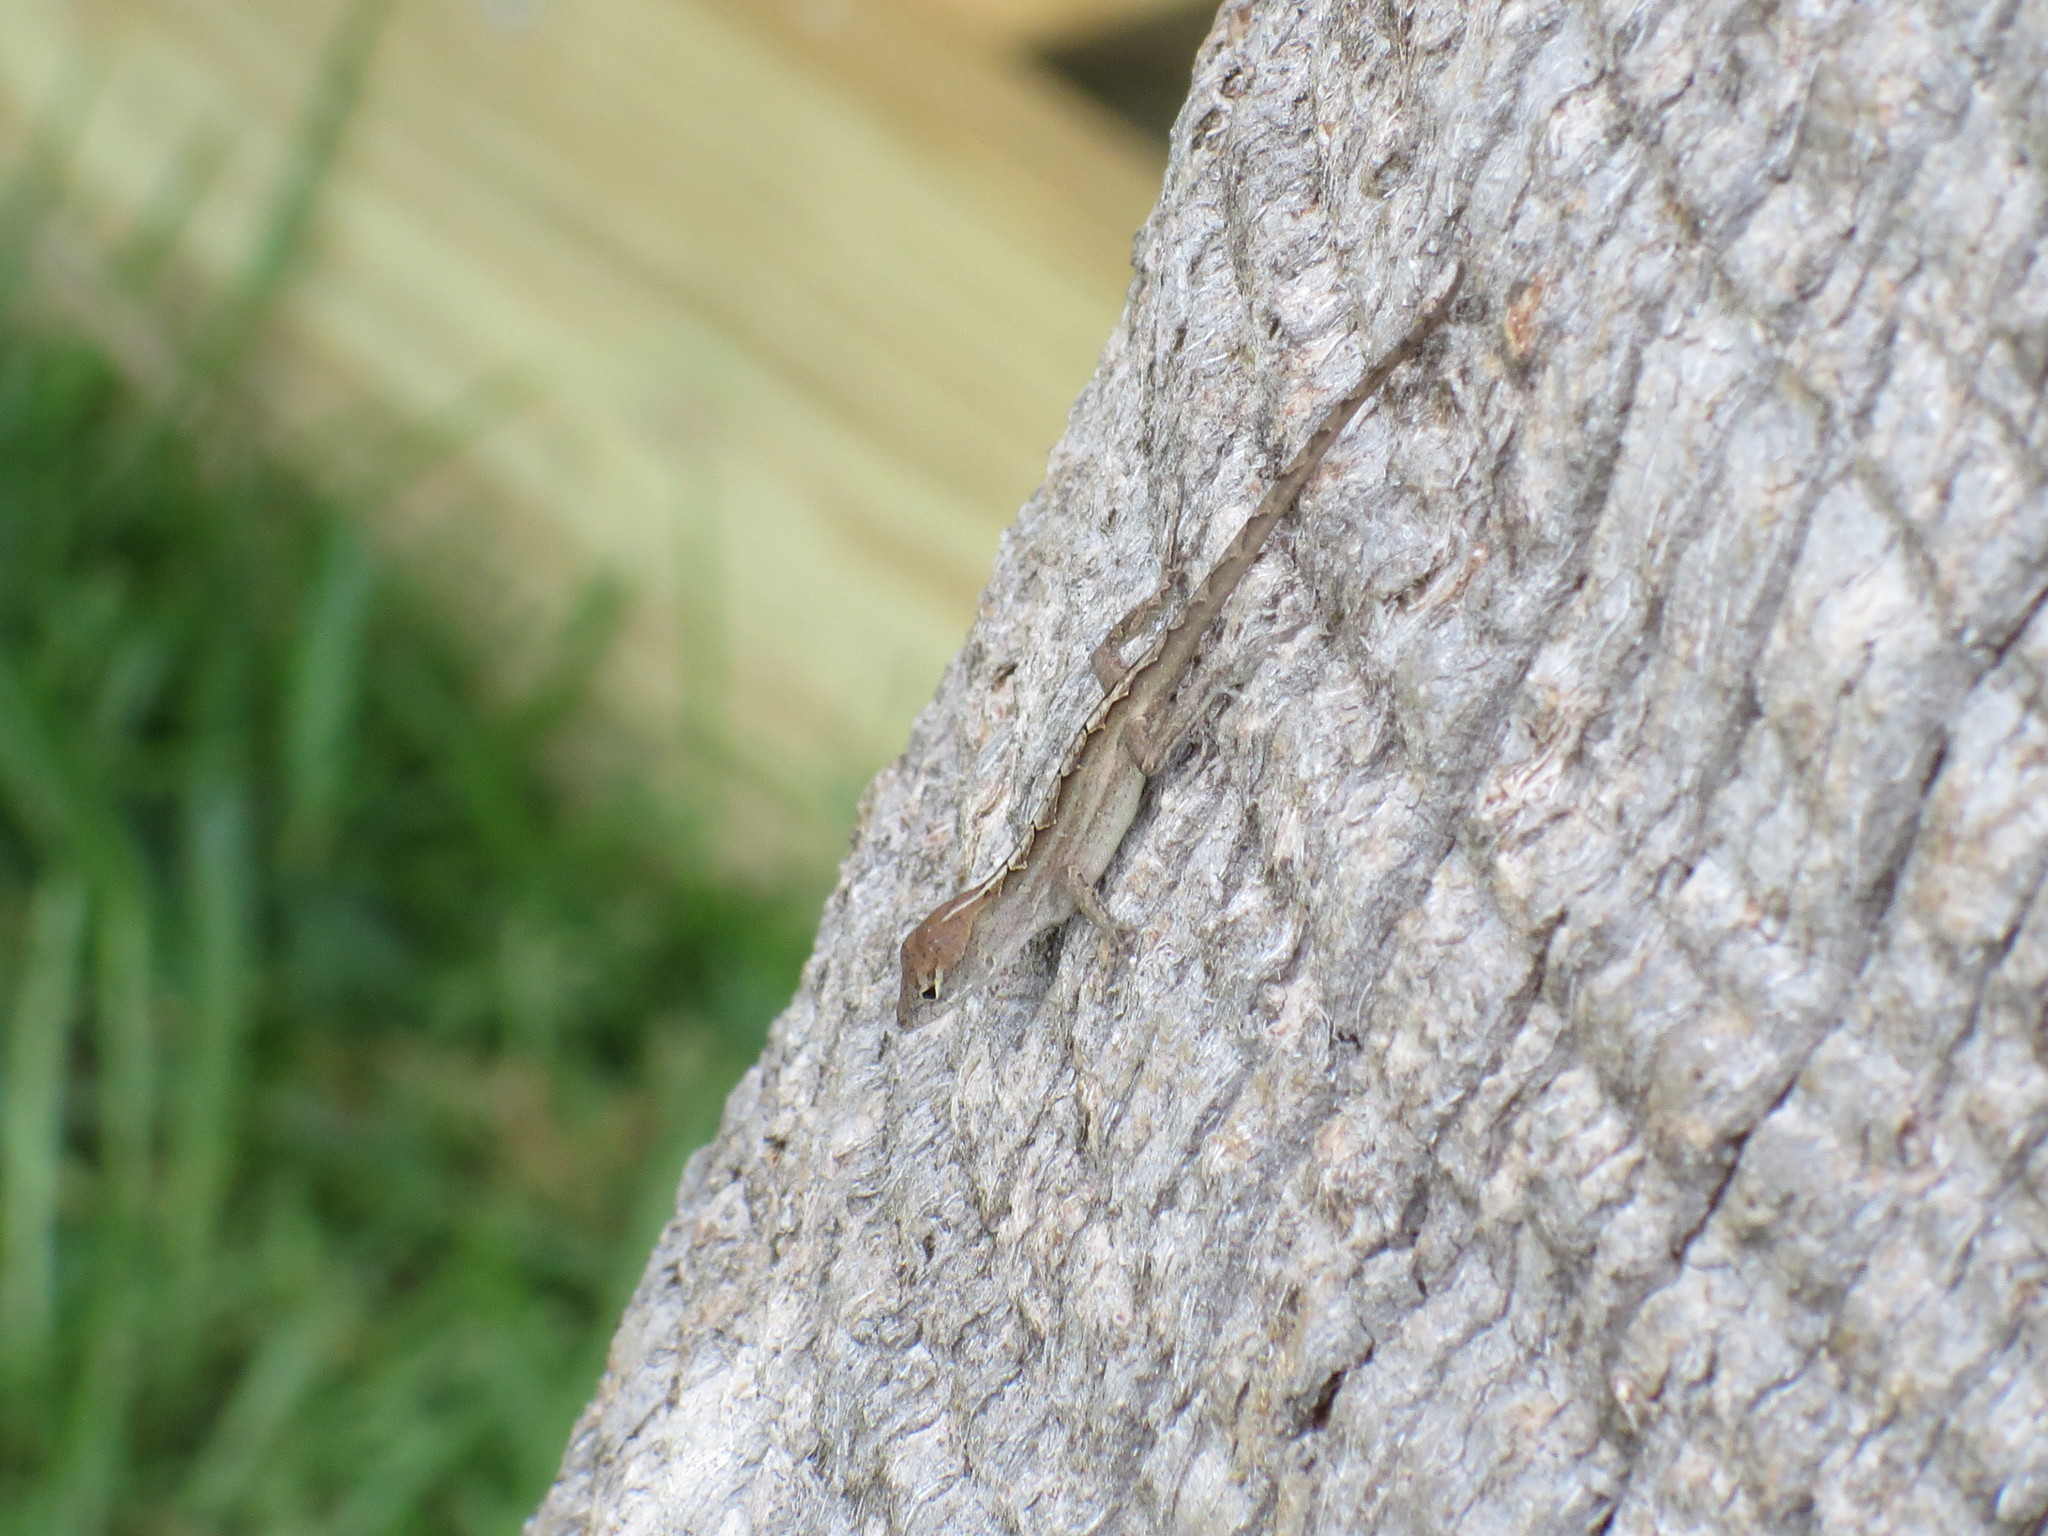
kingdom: Animalia
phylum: Chordata
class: Squamata
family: Dactyloidae
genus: Anolis
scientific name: Anolis sagrei
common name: Brown anole
